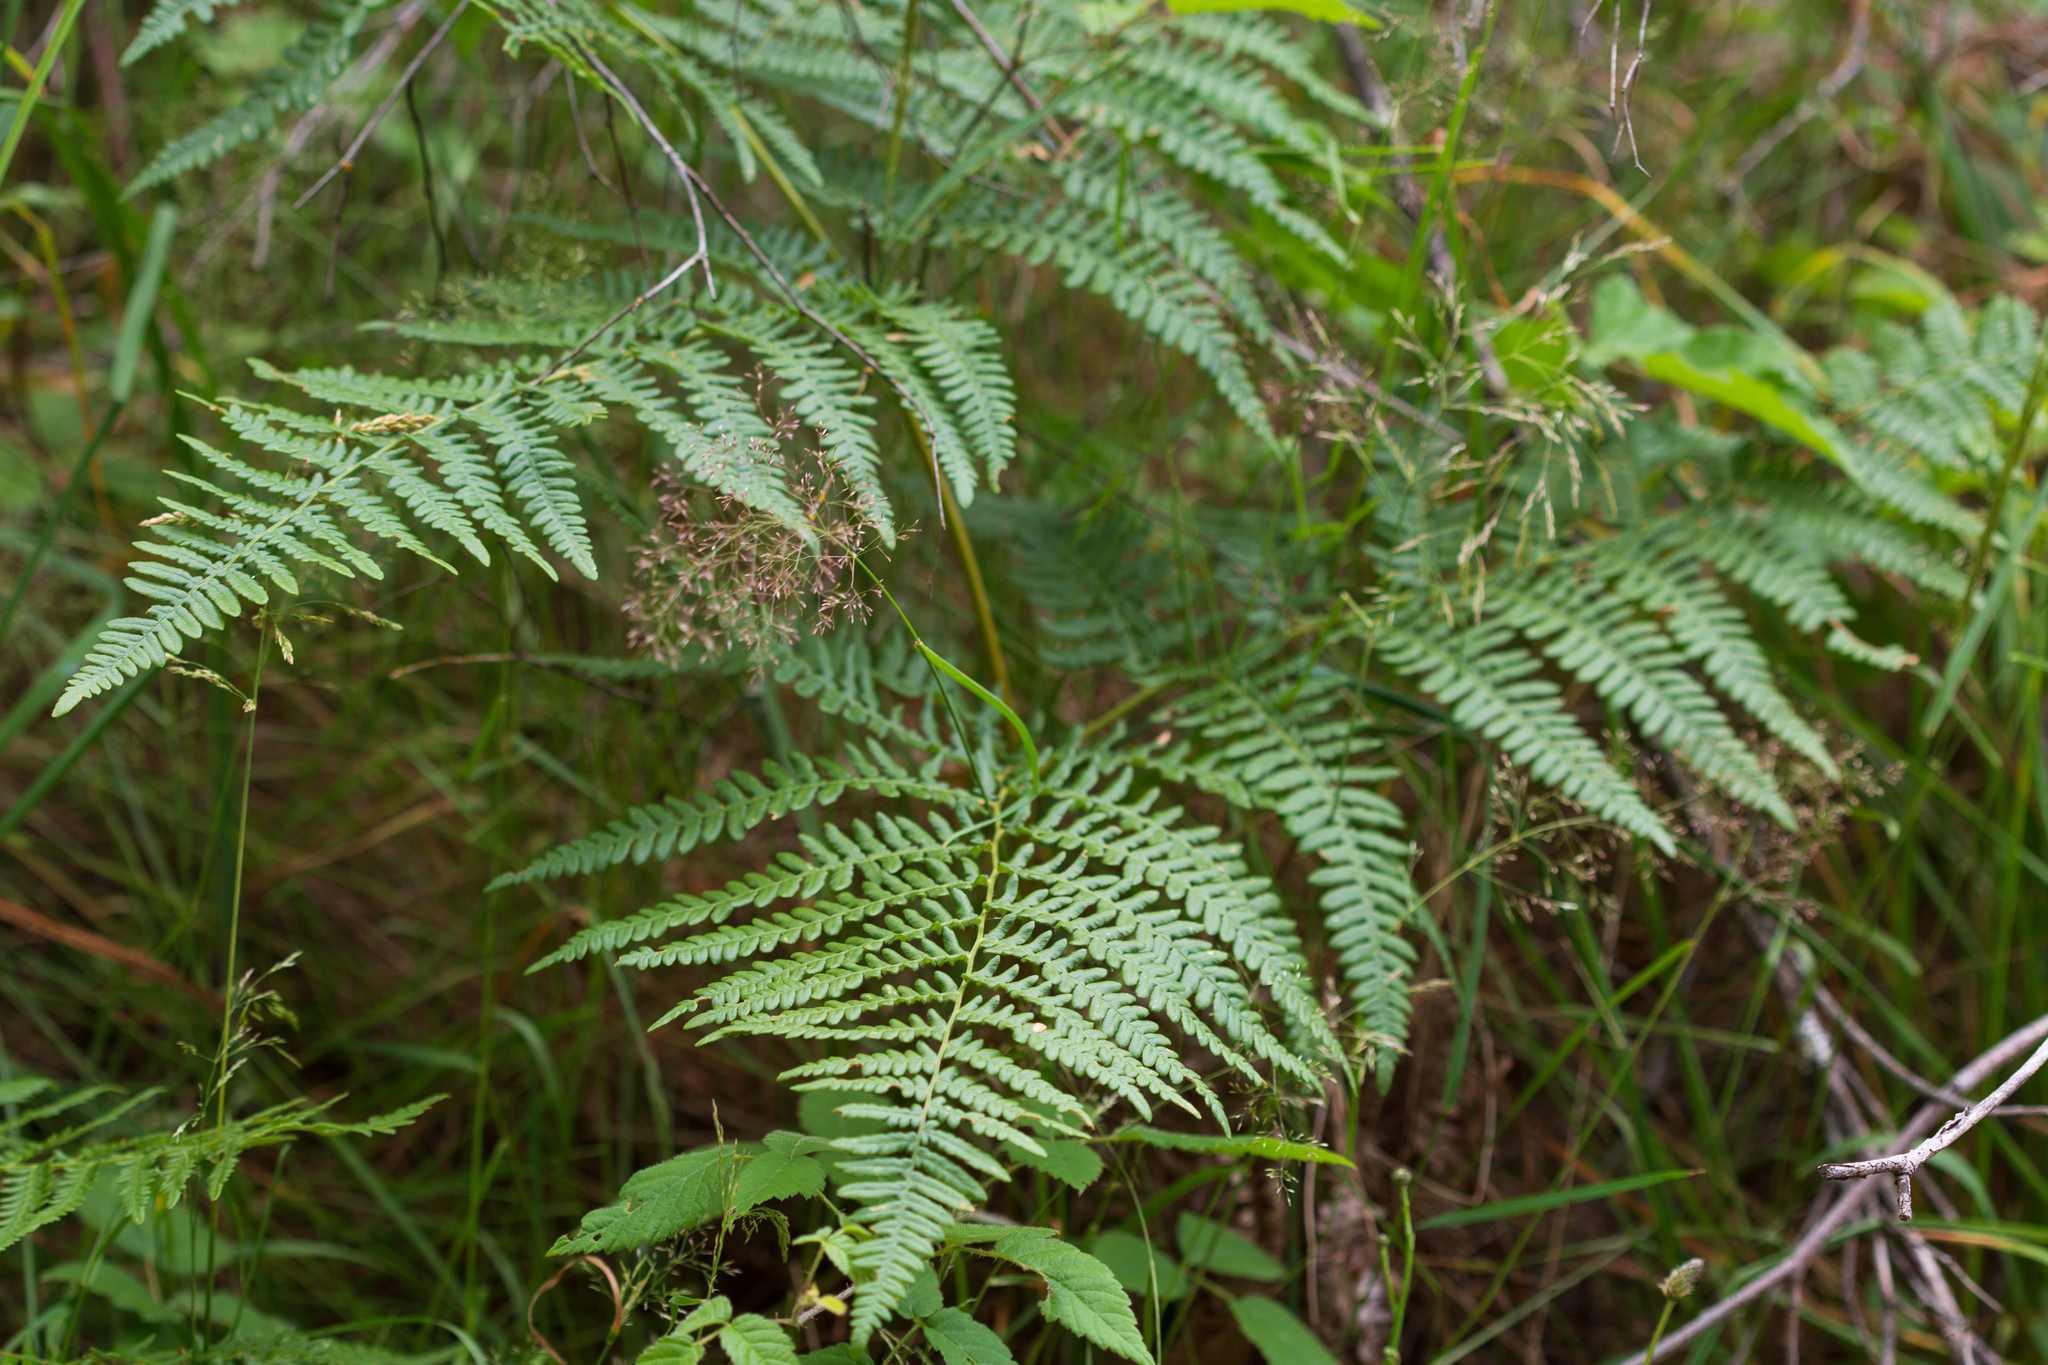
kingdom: Plantae
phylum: Tracheophyta
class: Polypodiopsida
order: Polypodiales
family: Dennstaedtiaceae
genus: Pteridium
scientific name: Pteridium aquilinum
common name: Bracken
